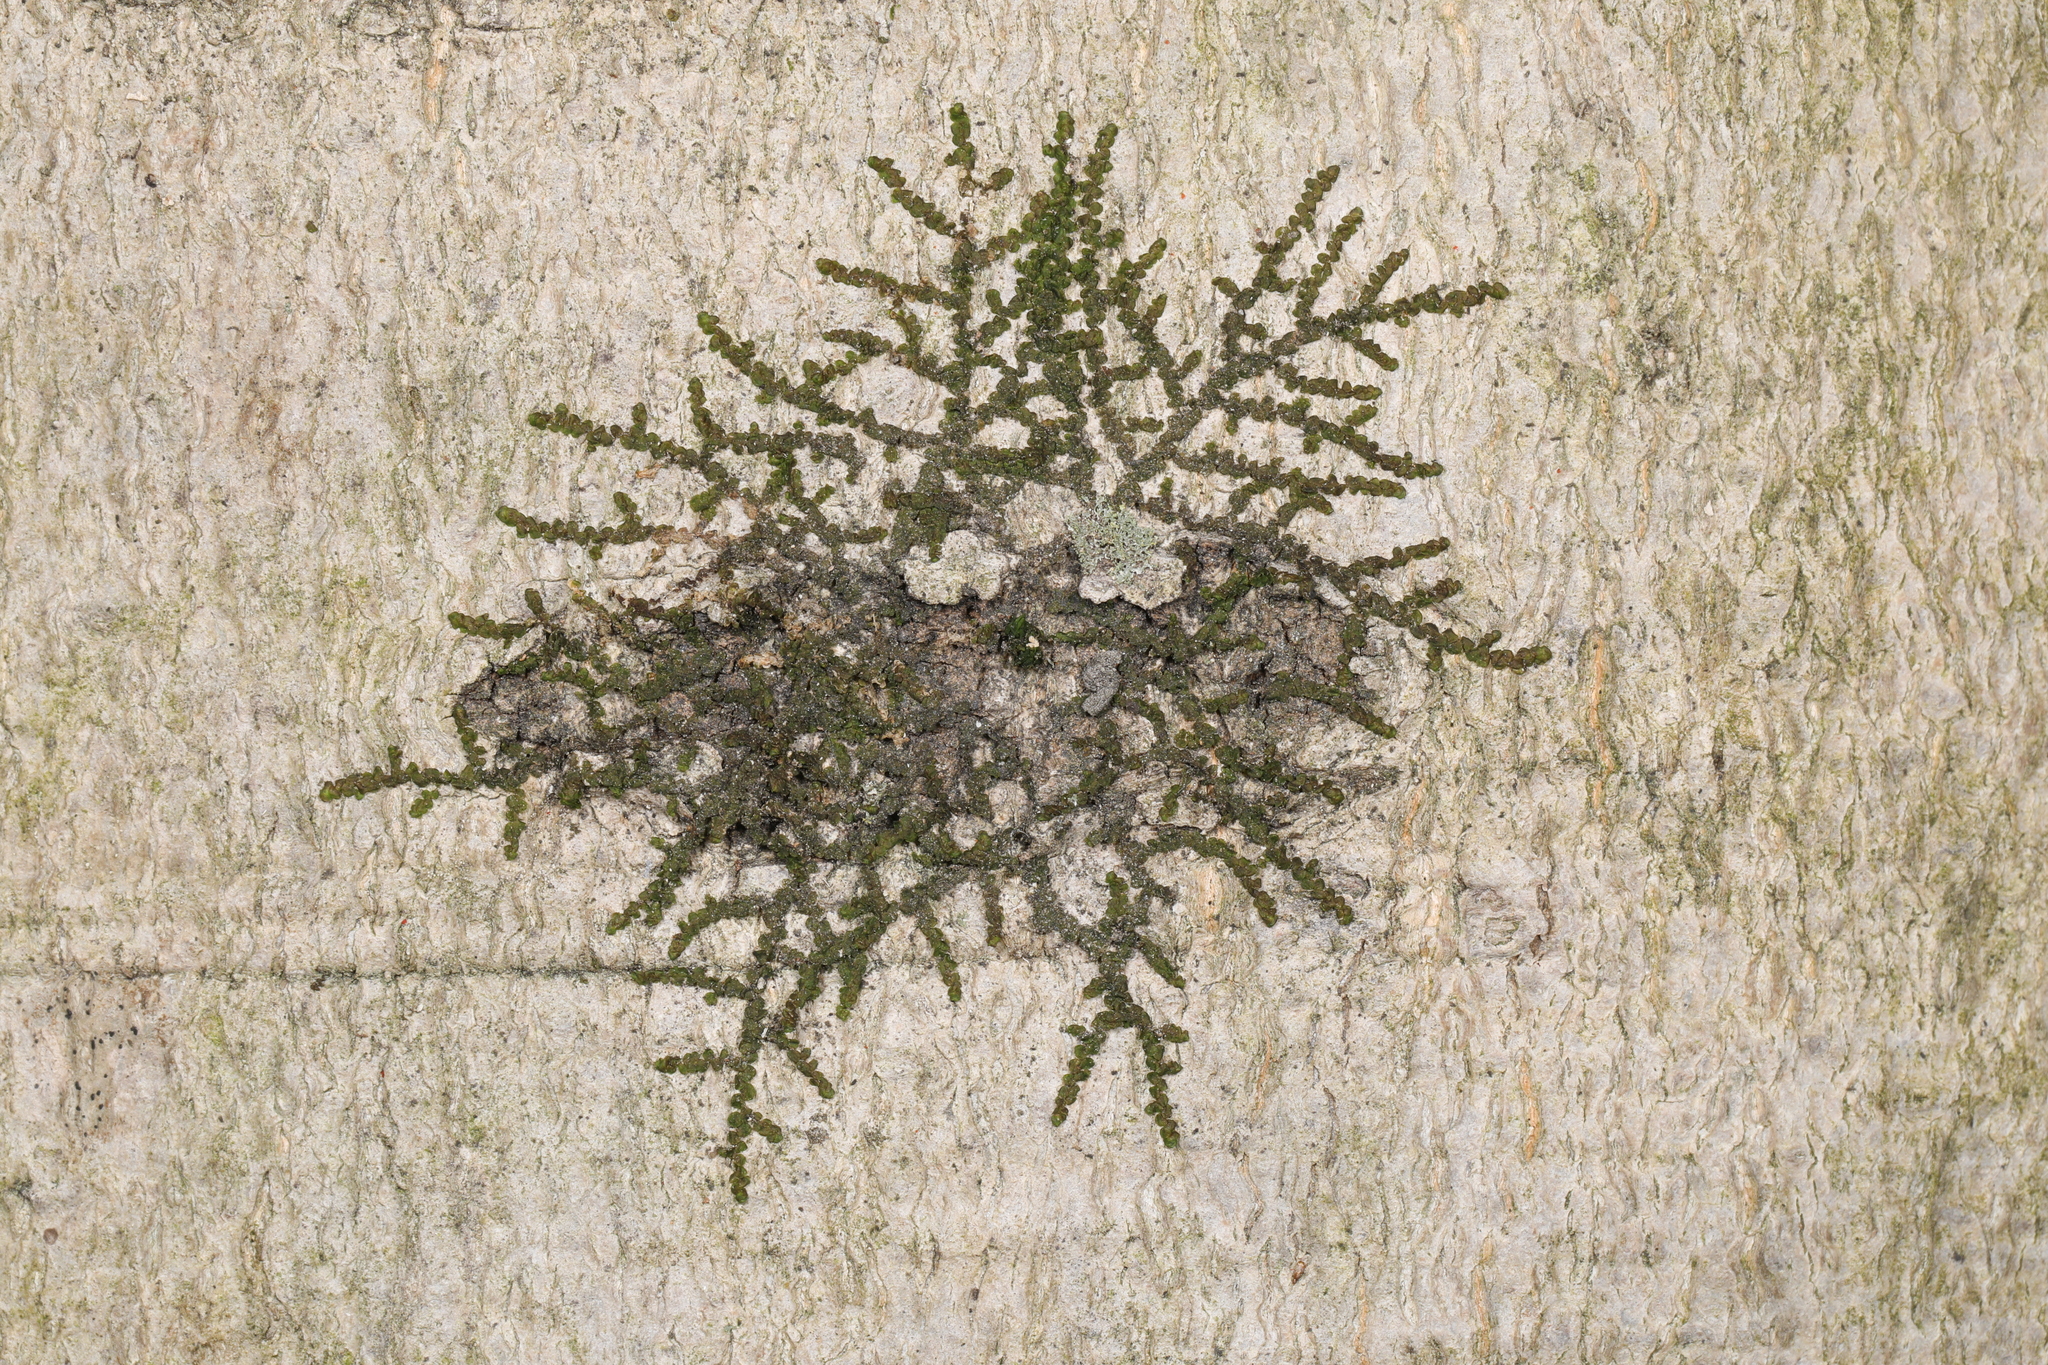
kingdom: Plantae
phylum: Marchantiophyta
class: Jungermanniopsida
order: Porellales
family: Frullaniaceae
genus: Frullania
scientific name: Frullania eboracensis
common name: New york scalewort
